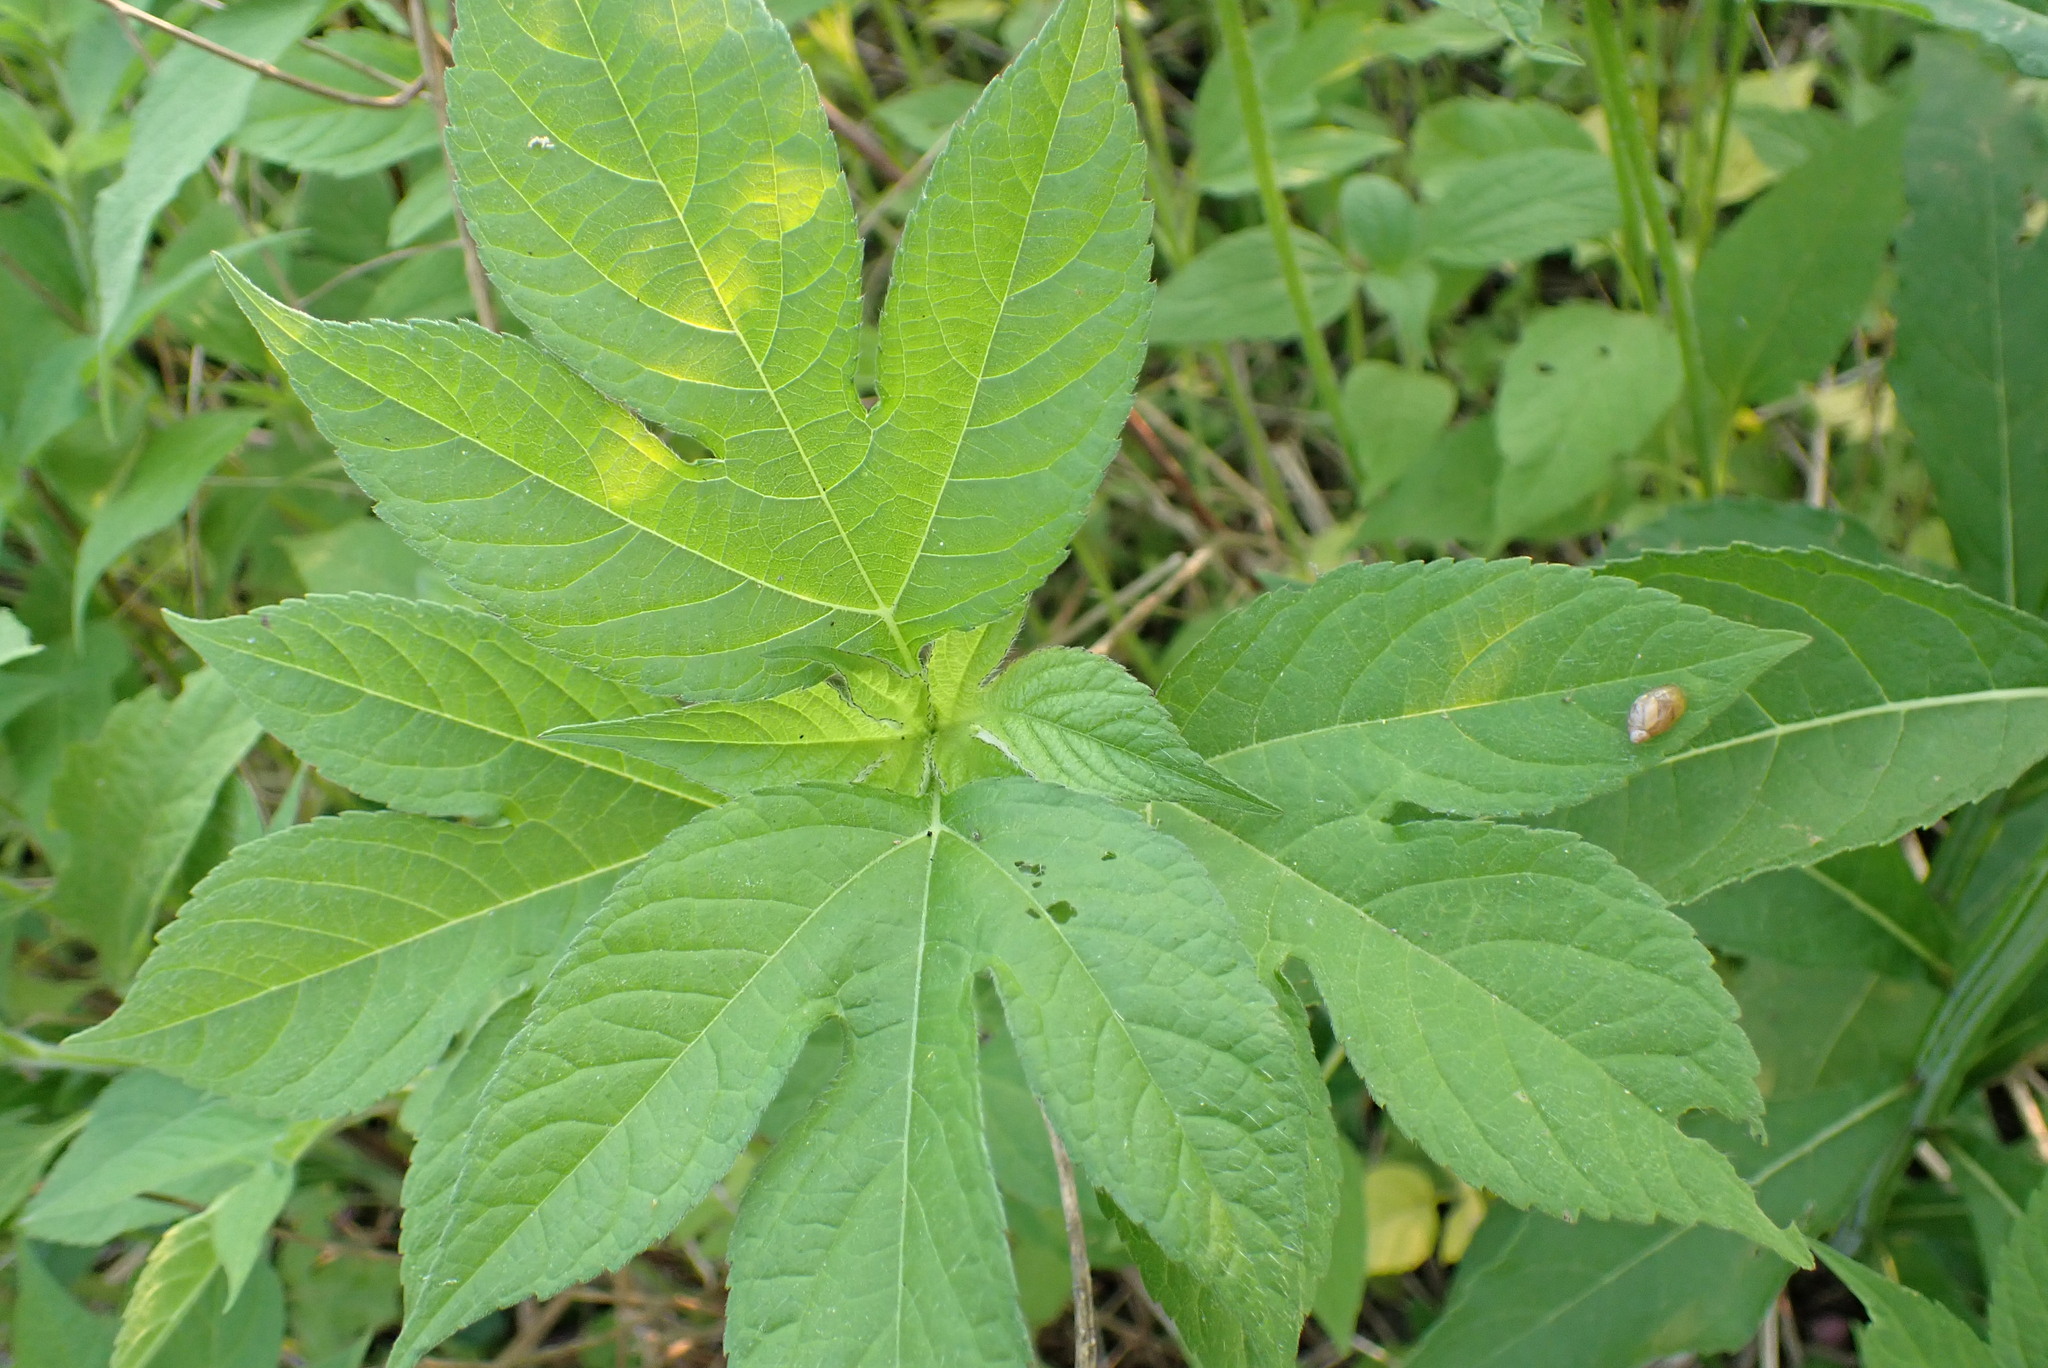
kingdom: Plantae
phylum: Tracheophyta
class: Magnoliopsida
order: Asterales
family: Asteraceae
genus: Ambrosia
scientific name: Ambrosia trifida
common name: Giant ragweed
